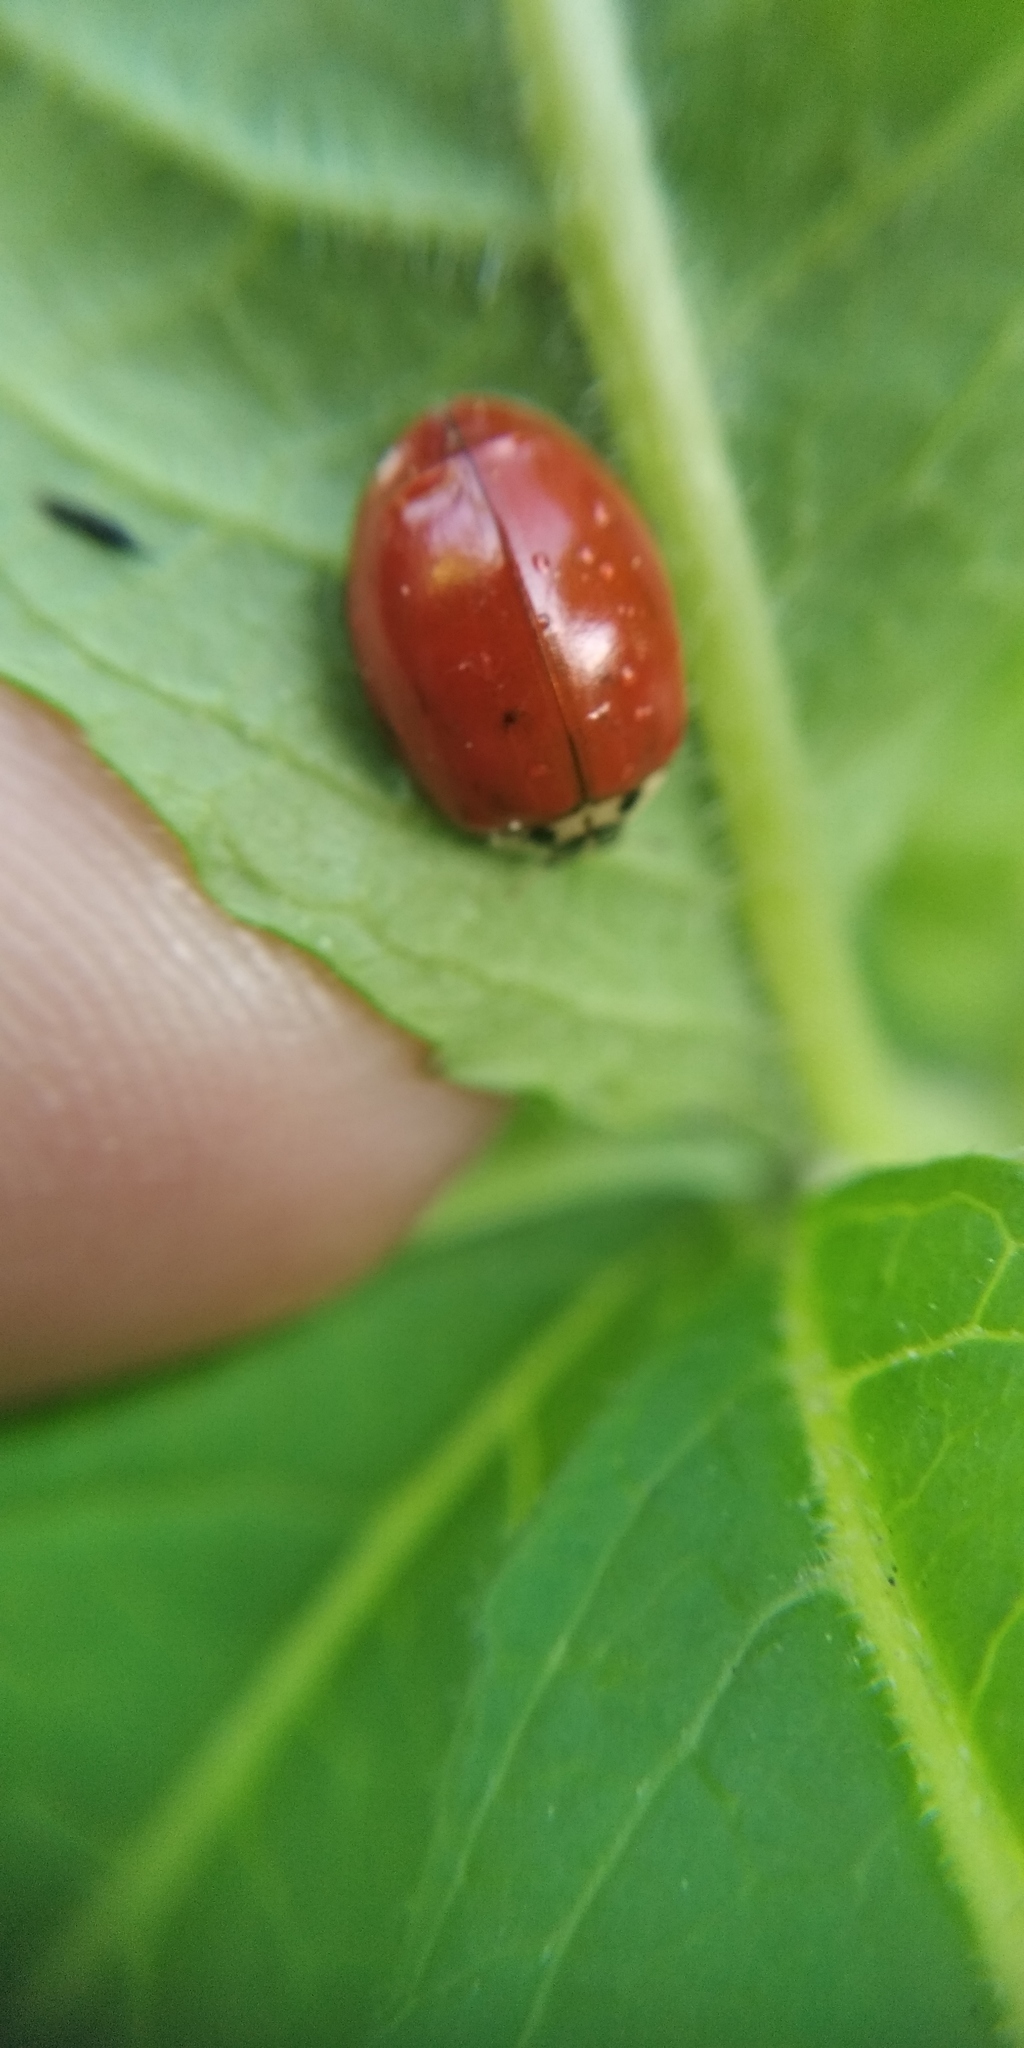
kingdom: Animalia
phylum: Arthropoda
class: Insecta
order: Coleoptera
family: Coccinellidae
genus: Harmonia
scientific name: Harmonia axyridis
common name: Harlequin ladybird
